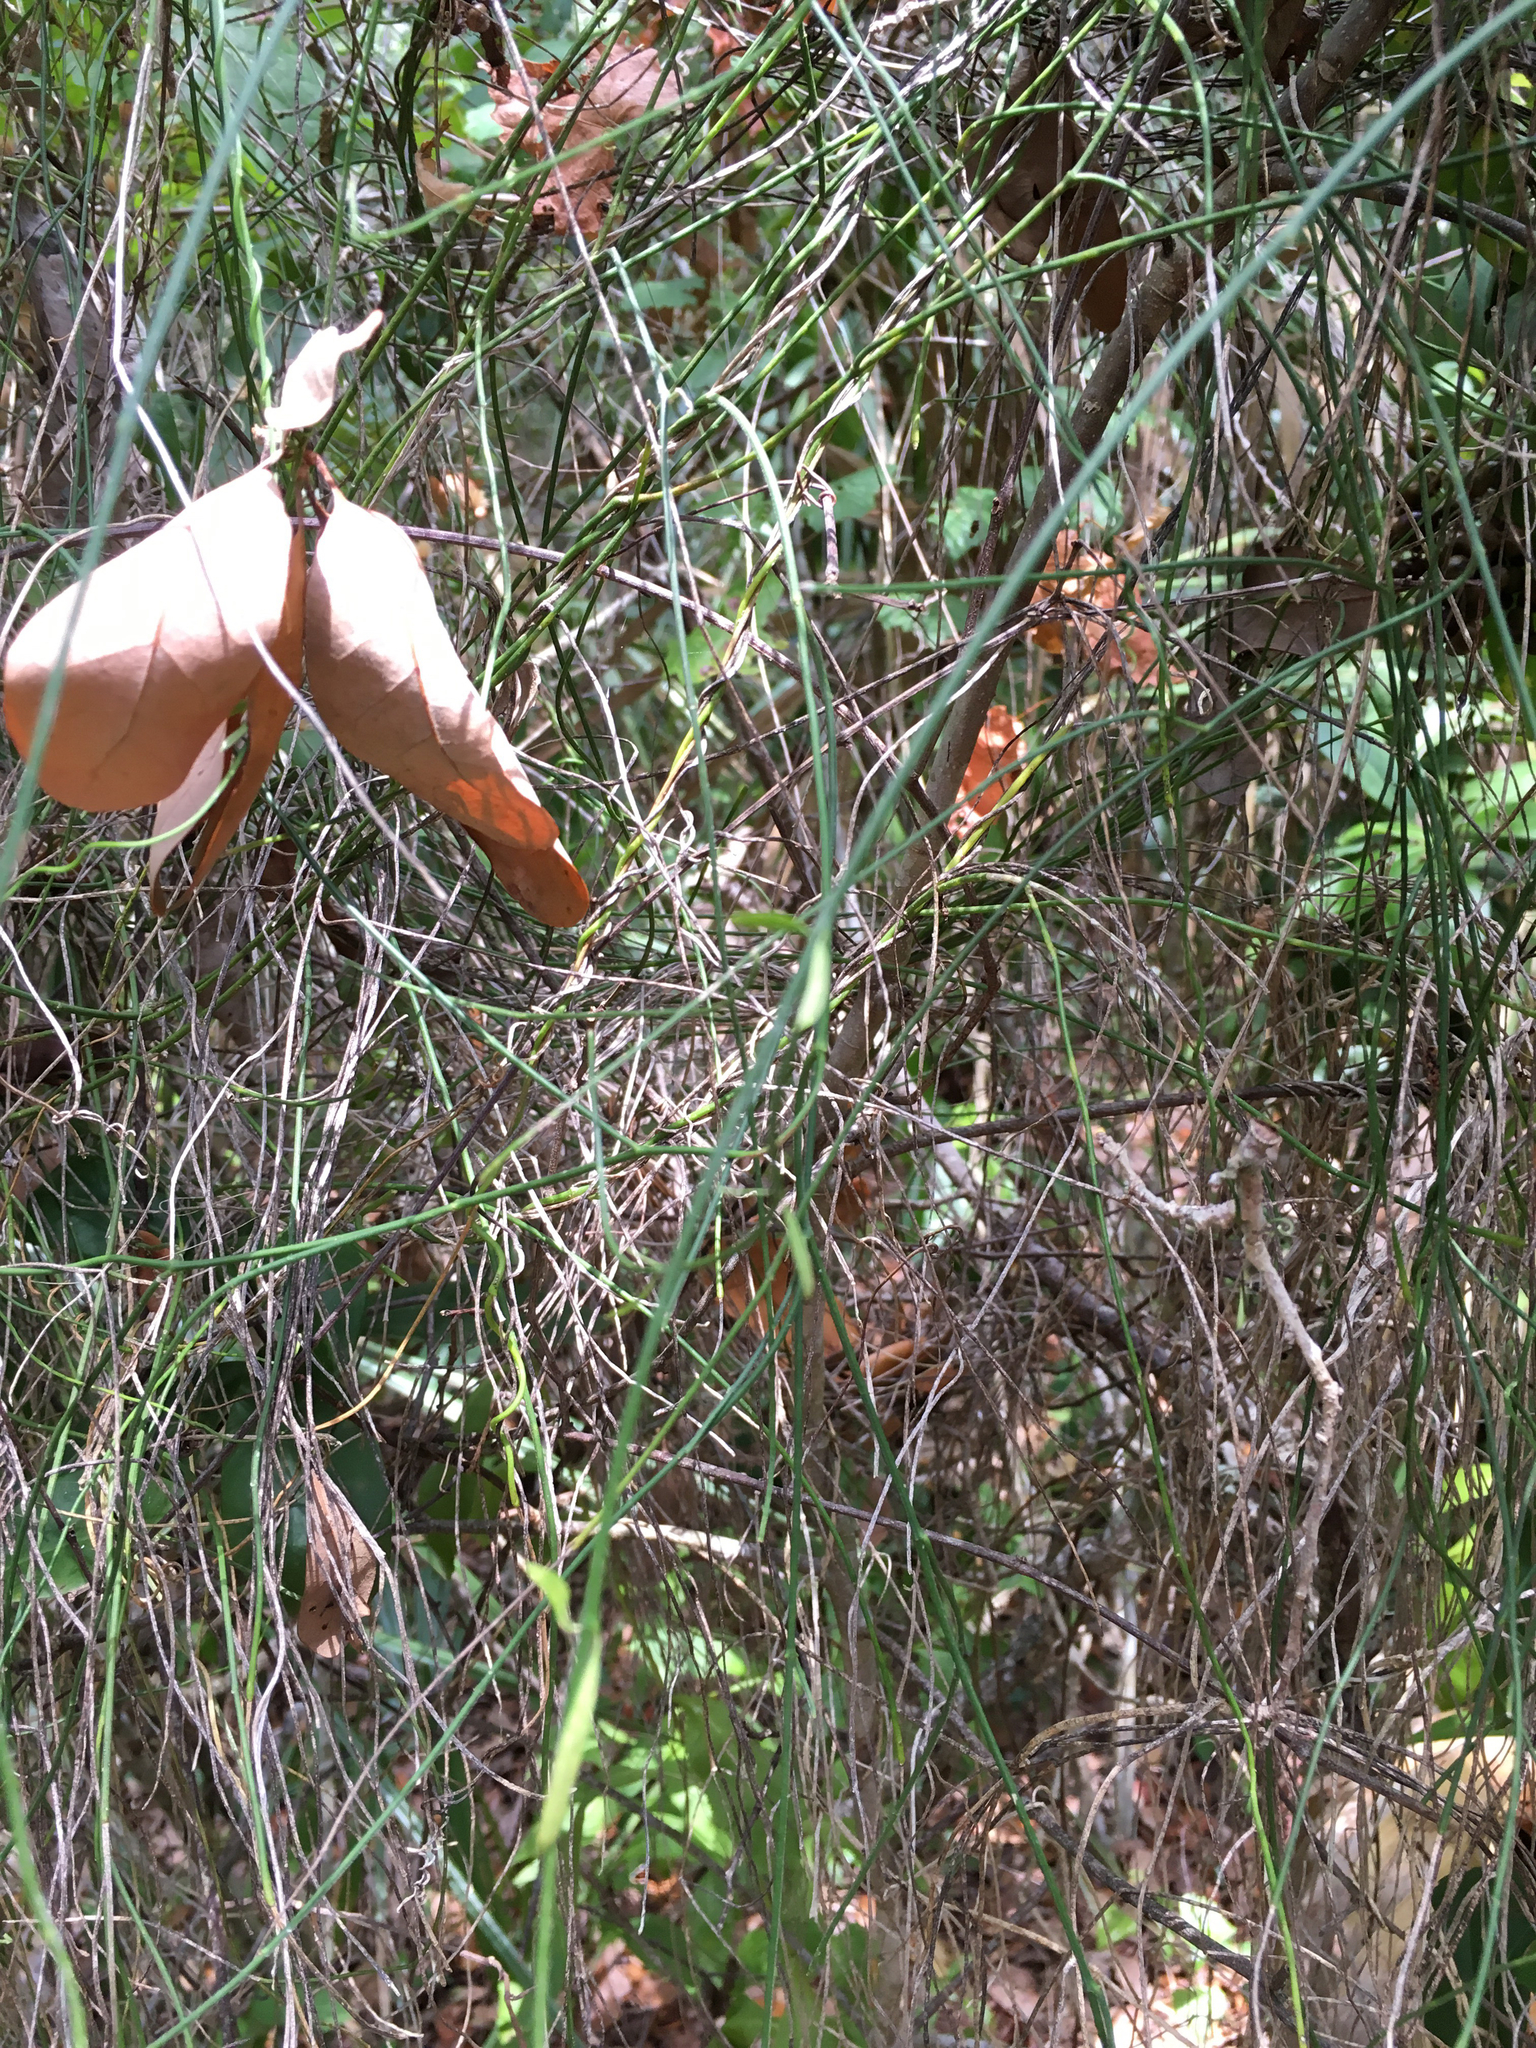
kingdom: Plantae
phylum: Tracheophyta
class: Magnoliopsida
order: Gentianales
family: Apocynaceae
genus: Orthosia
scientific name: Orthosia scoparia
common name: Leafless swallow-wort
